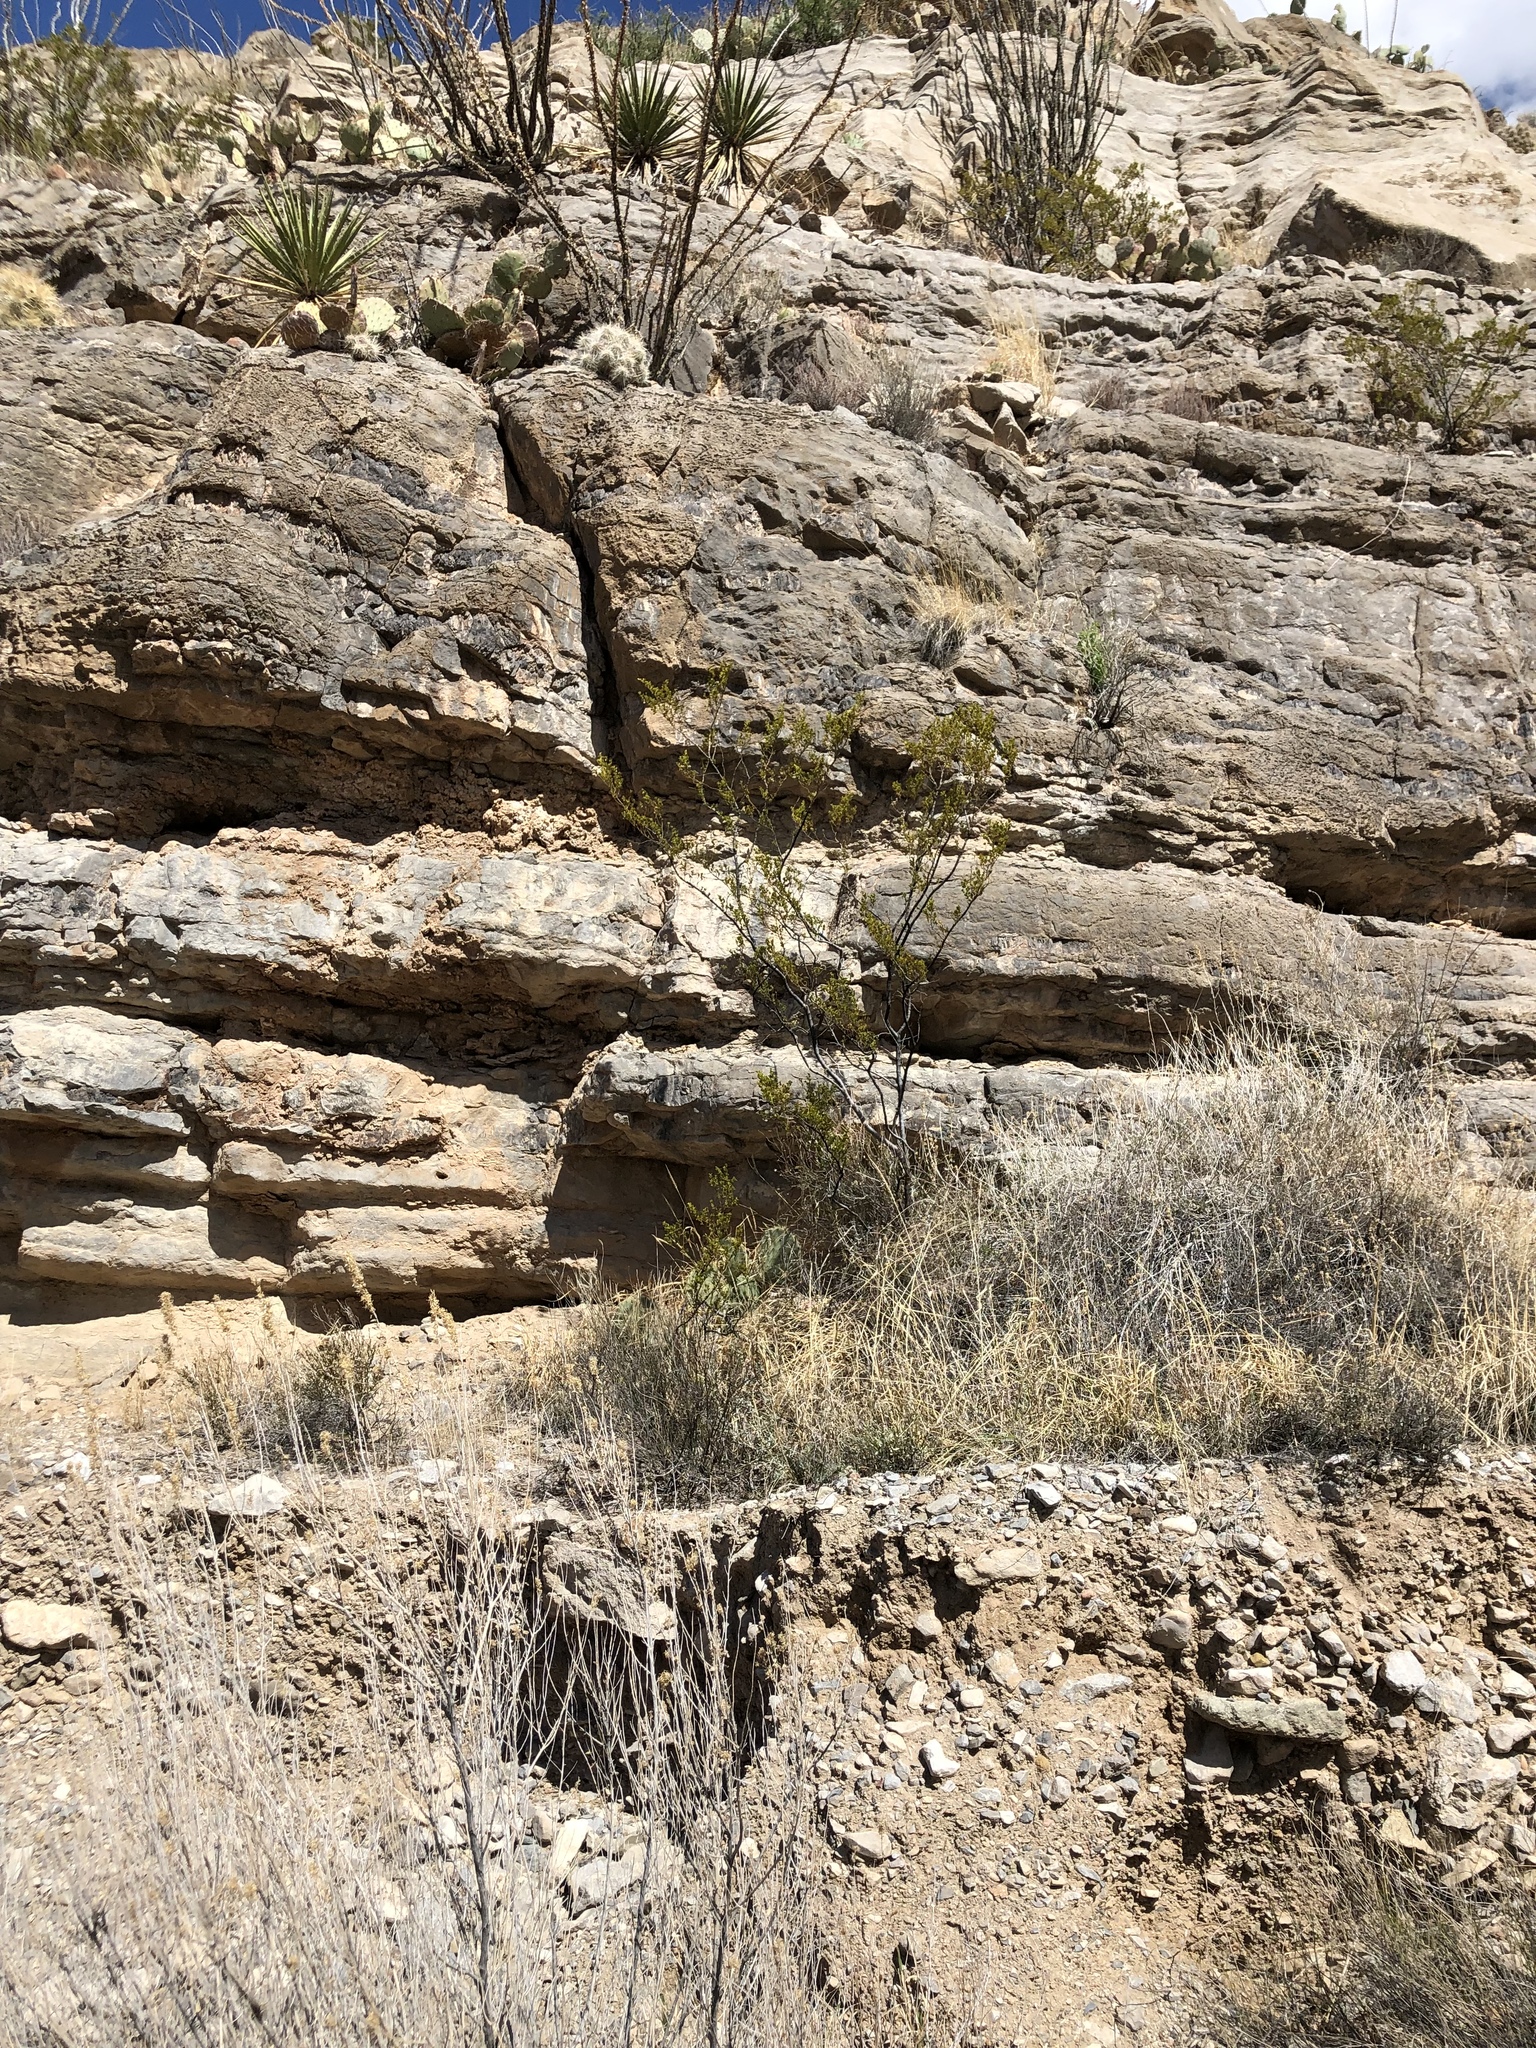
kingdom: Plantae
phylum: Tracheophyta
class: Magnoliopsida
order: Zygophyllales
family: Zygophyllaceae
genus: Larrea
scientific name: Larrea tridentata
